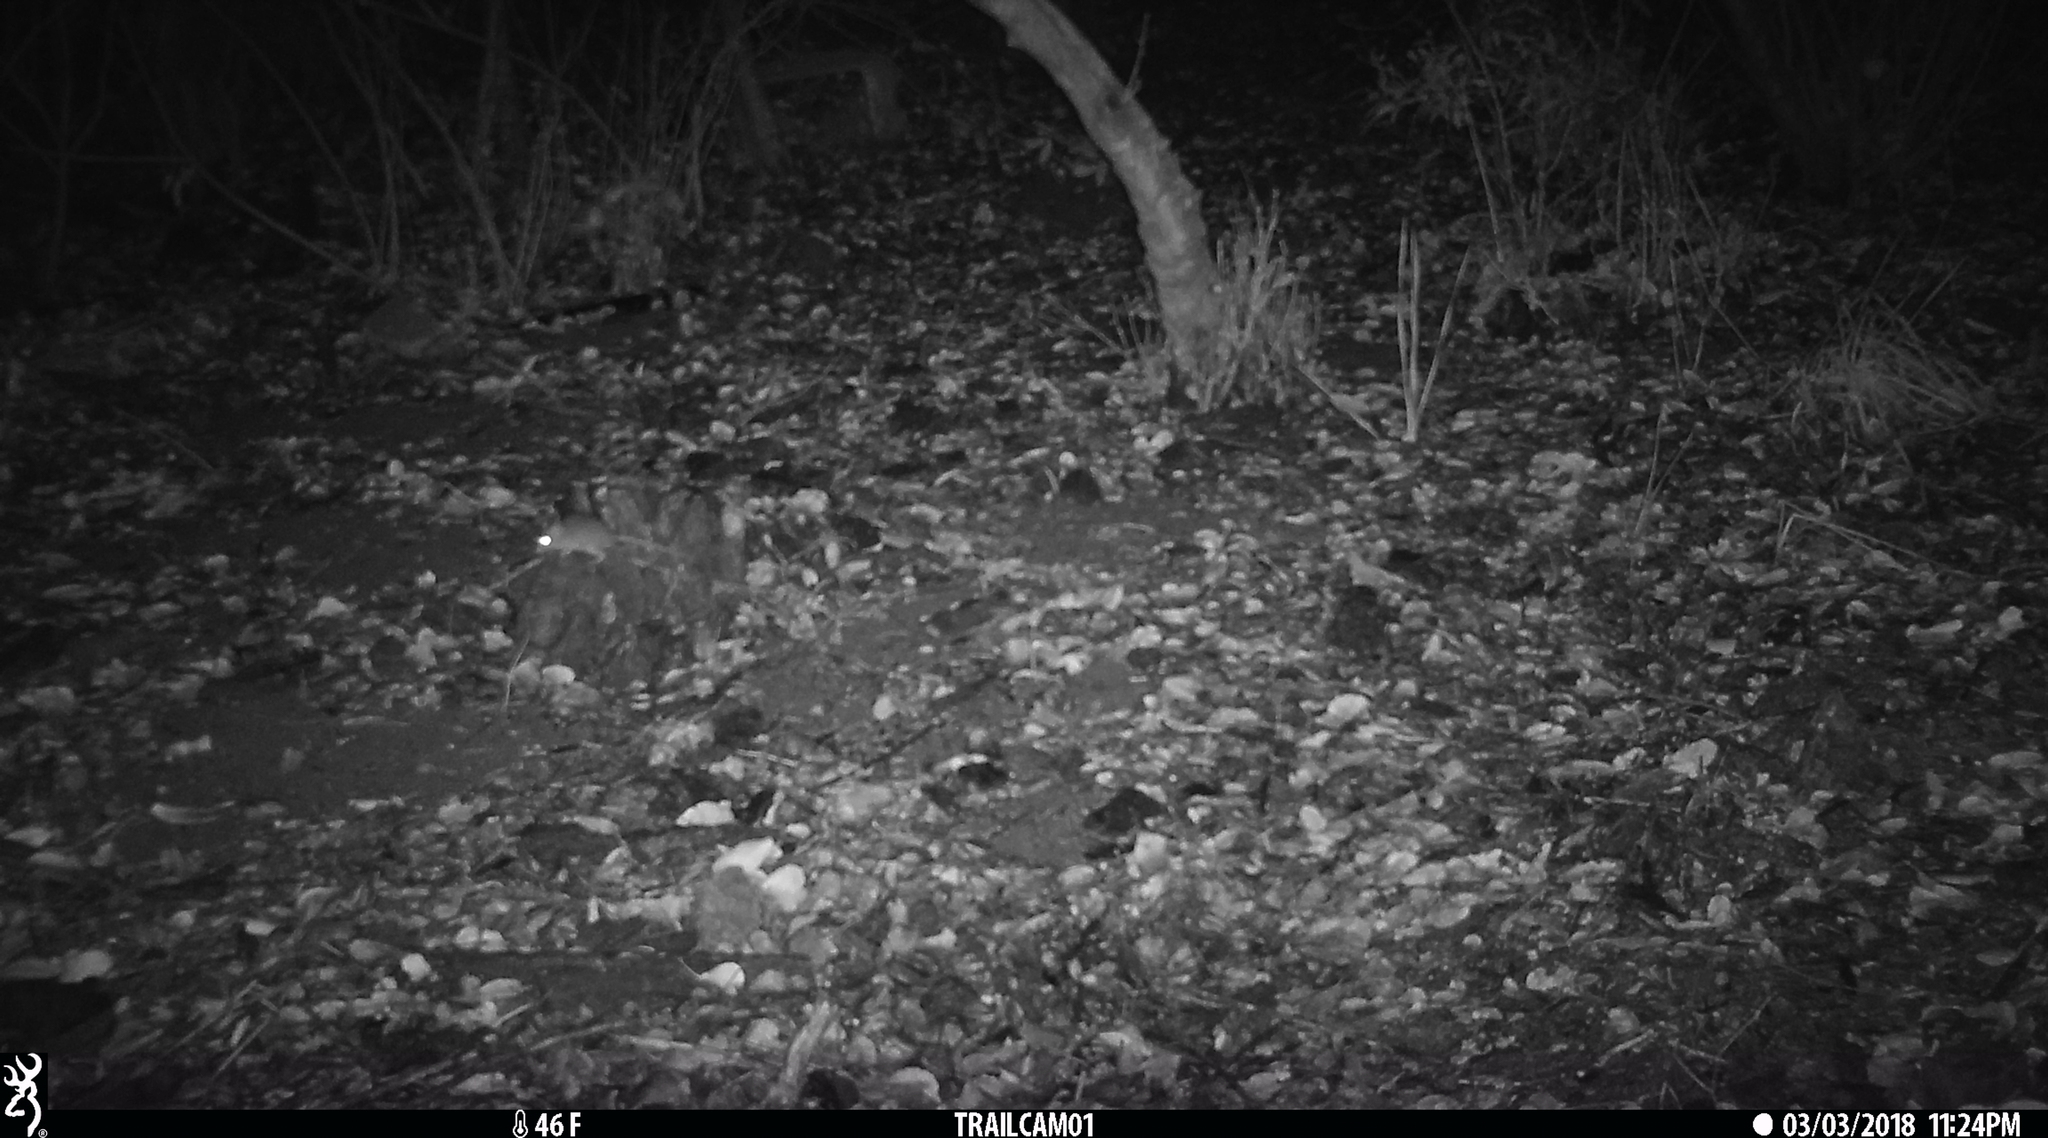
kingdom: Animalia
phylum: Chordata
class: Mammalia
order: Rodentia
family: Cricetidae
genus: Neotoma
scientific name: Neotoma fuscipes
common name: Dusky-footed woodrat
